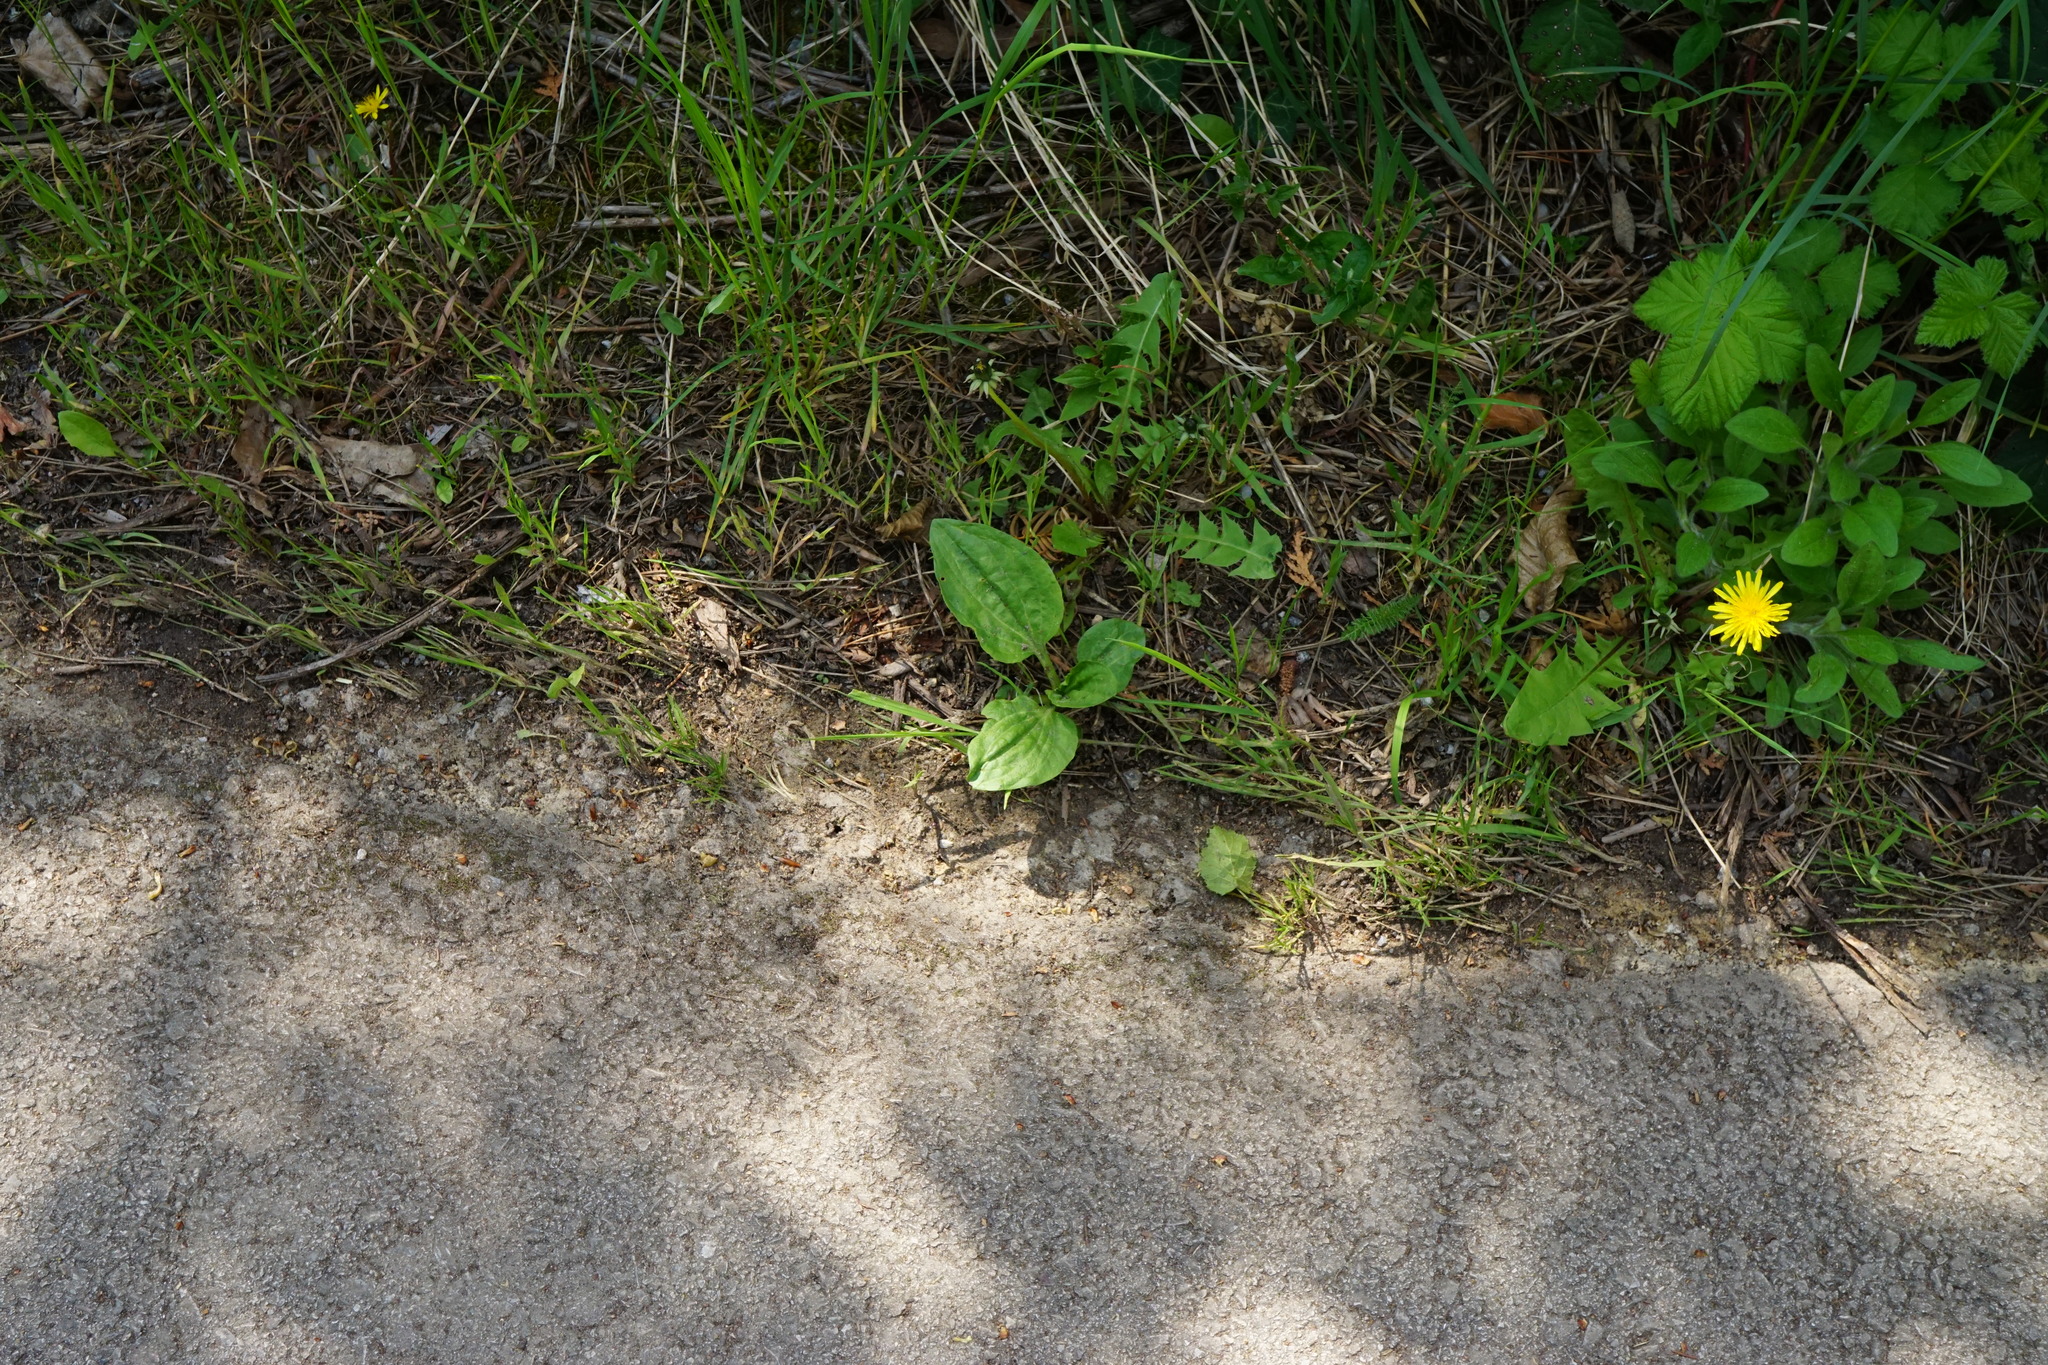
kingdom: Plantae
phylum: Tracheophyta
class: Magnoliopsida
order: Lamiales
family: Plantaginaceae
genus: Plantago
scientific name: Plantago major
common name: Common plantain
